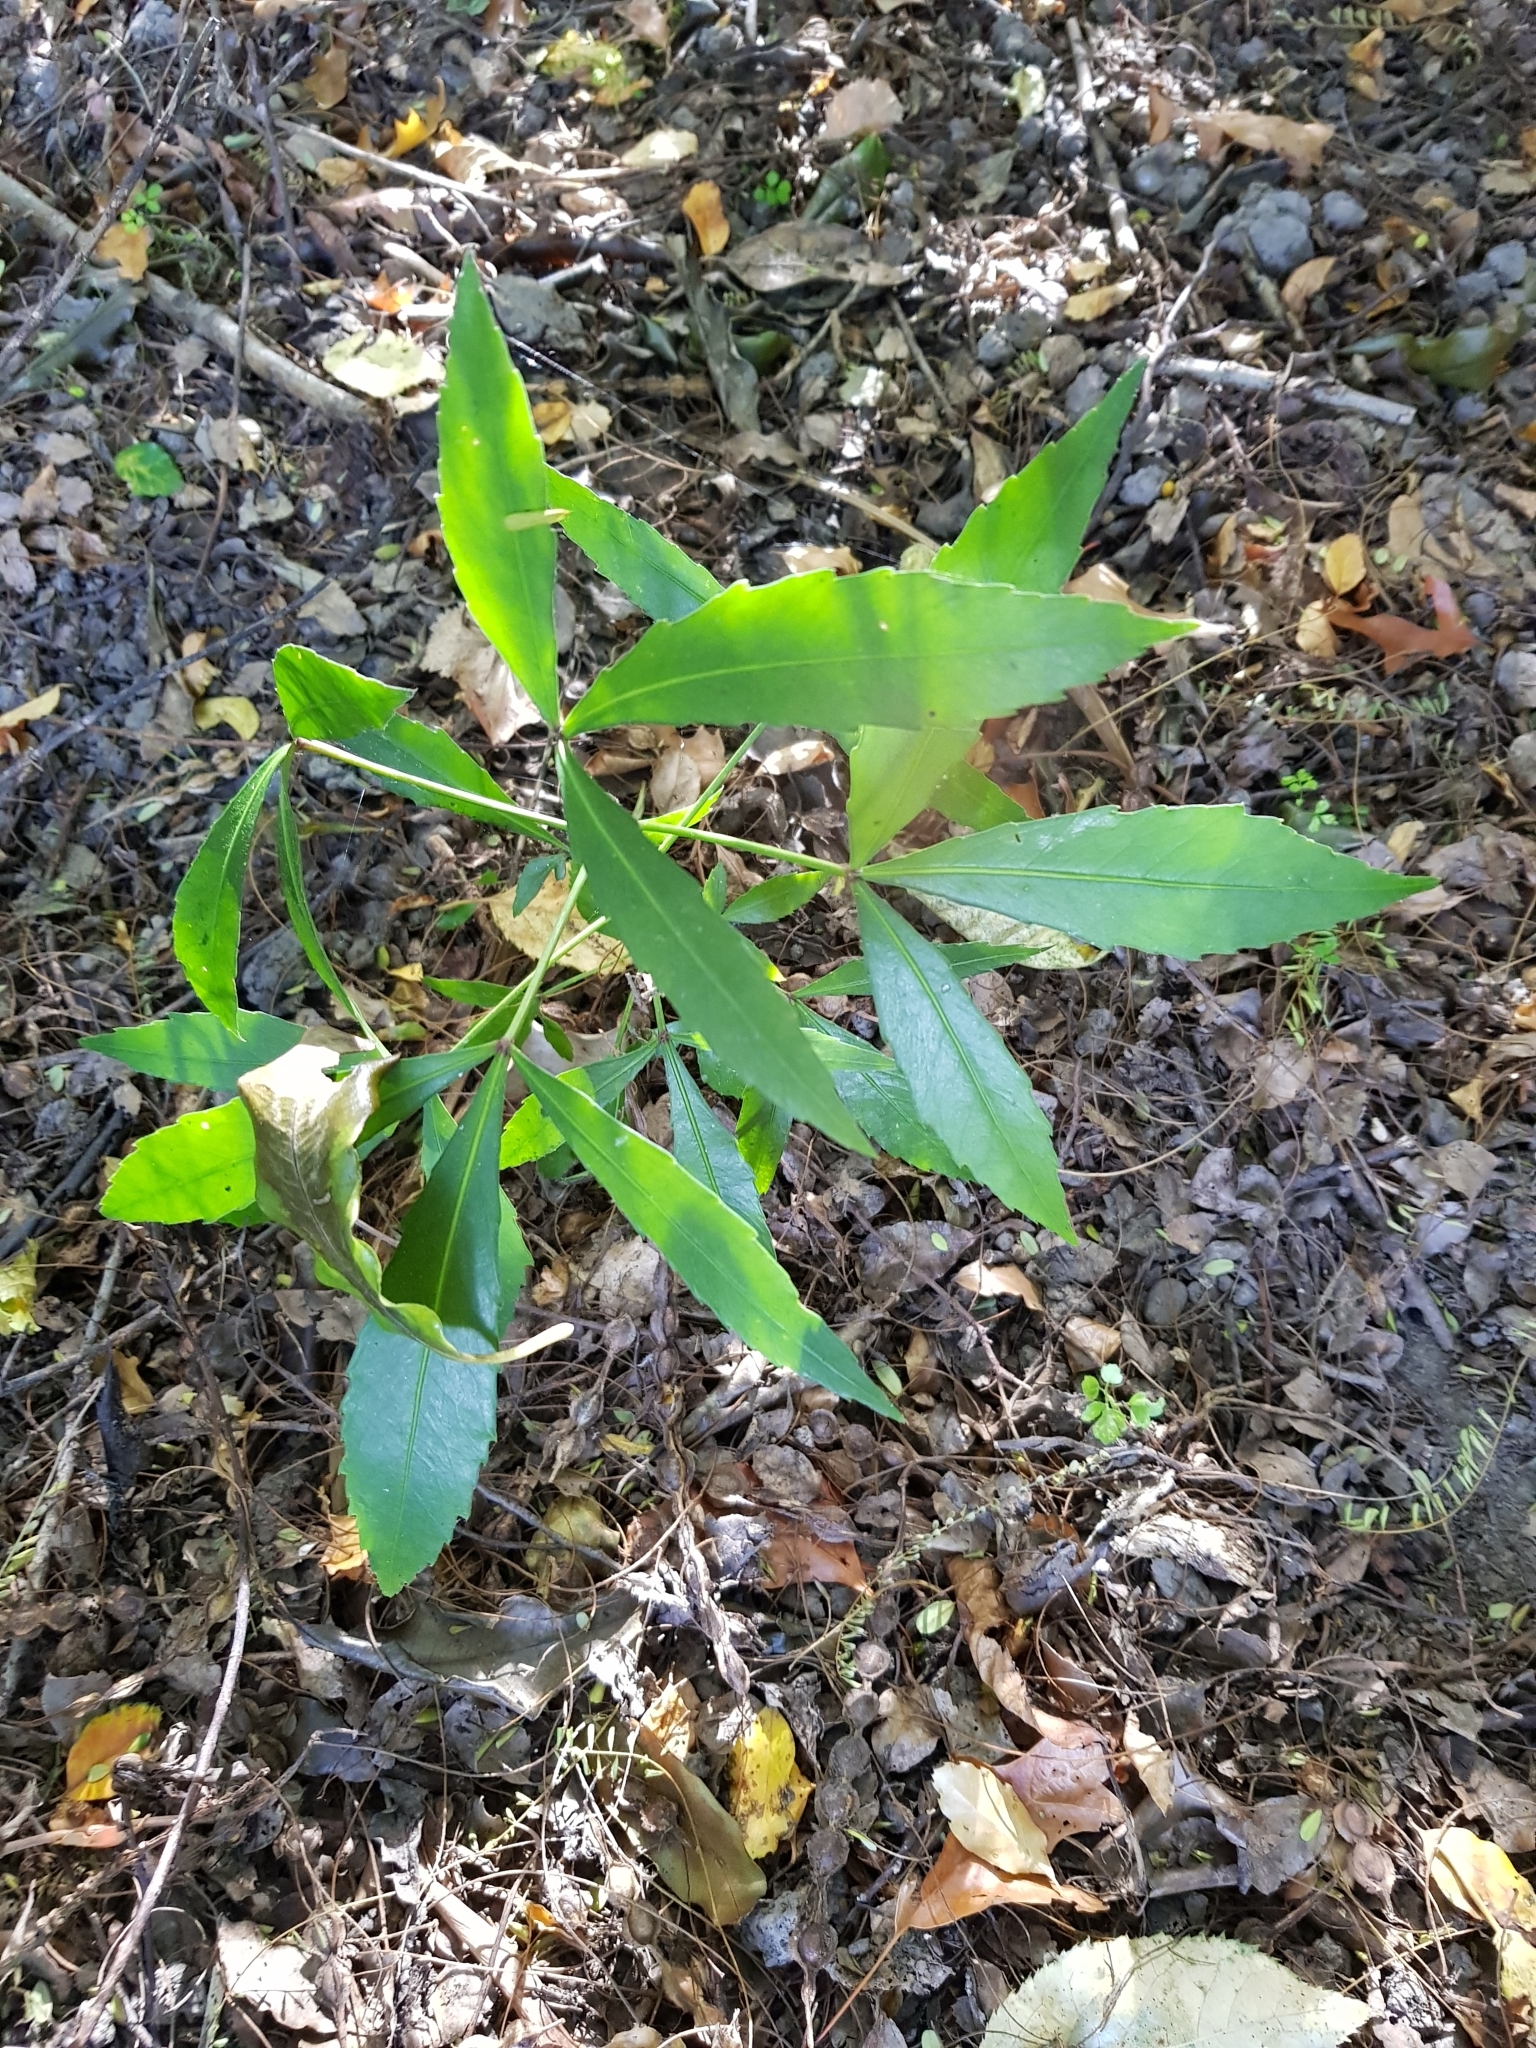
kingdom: Plantae
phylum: Tracheophyta
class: Magnoliopsida
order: Apiales
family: Araliaceae
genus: Pseudopanax
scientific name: Pseudopanax
